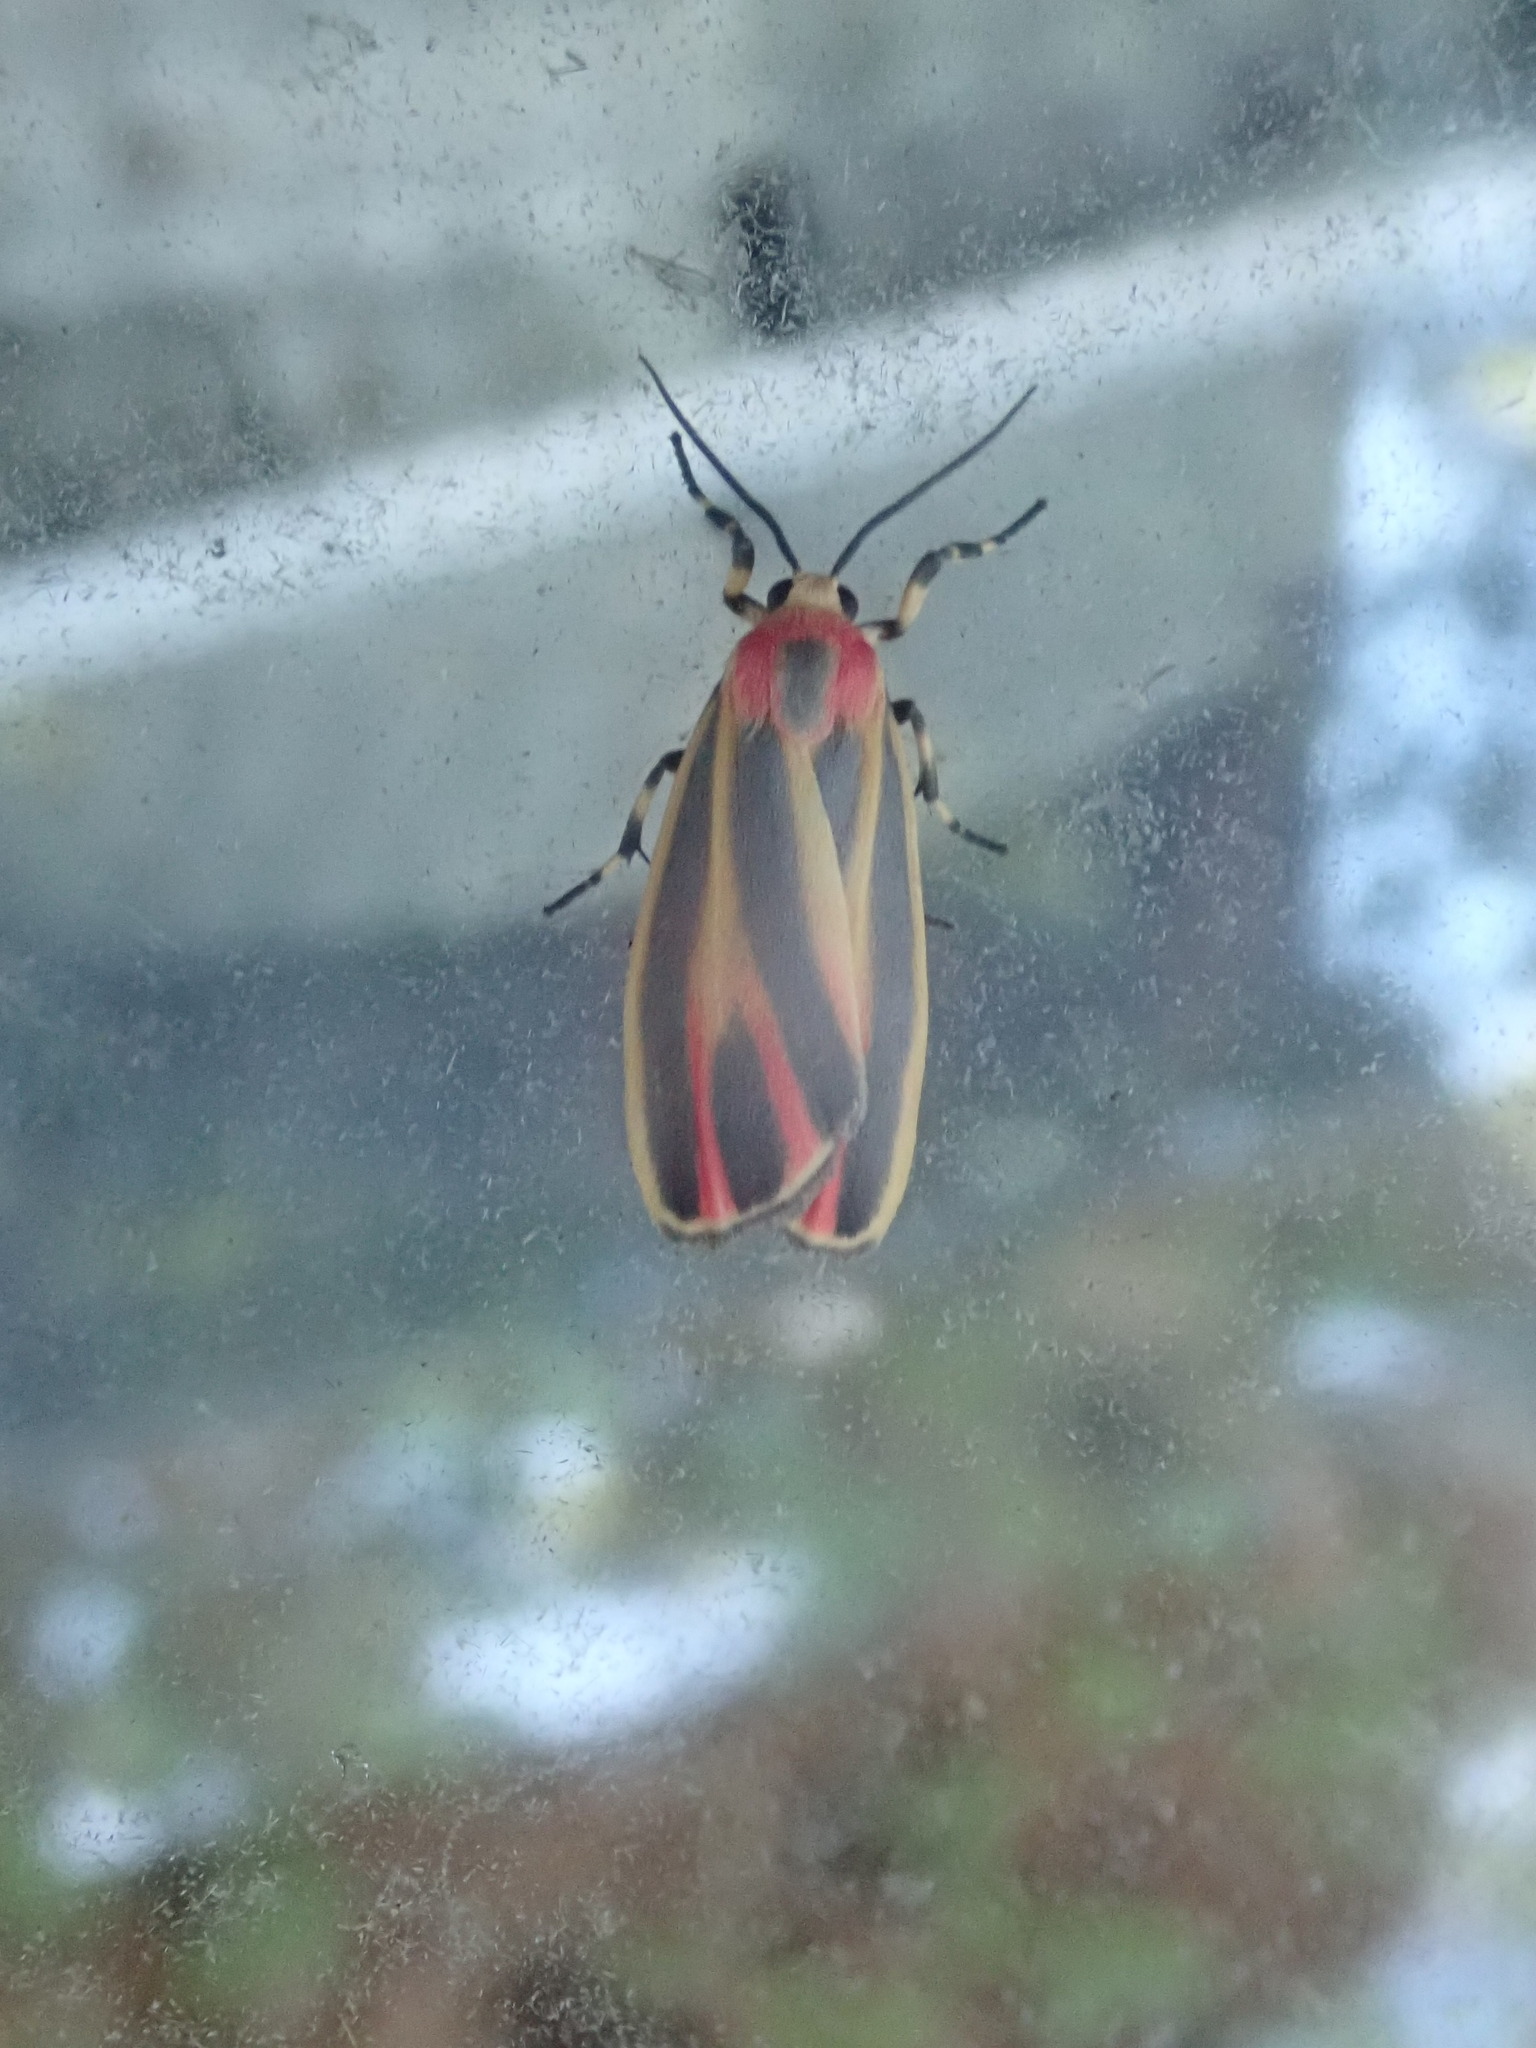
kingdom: Animalia
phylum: Arthropoda
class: Insecta
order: Lepidoptera
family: Erebidae
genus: Hypoprepia
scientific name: Hypoprepia fucosa
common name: Painted lichen moth
